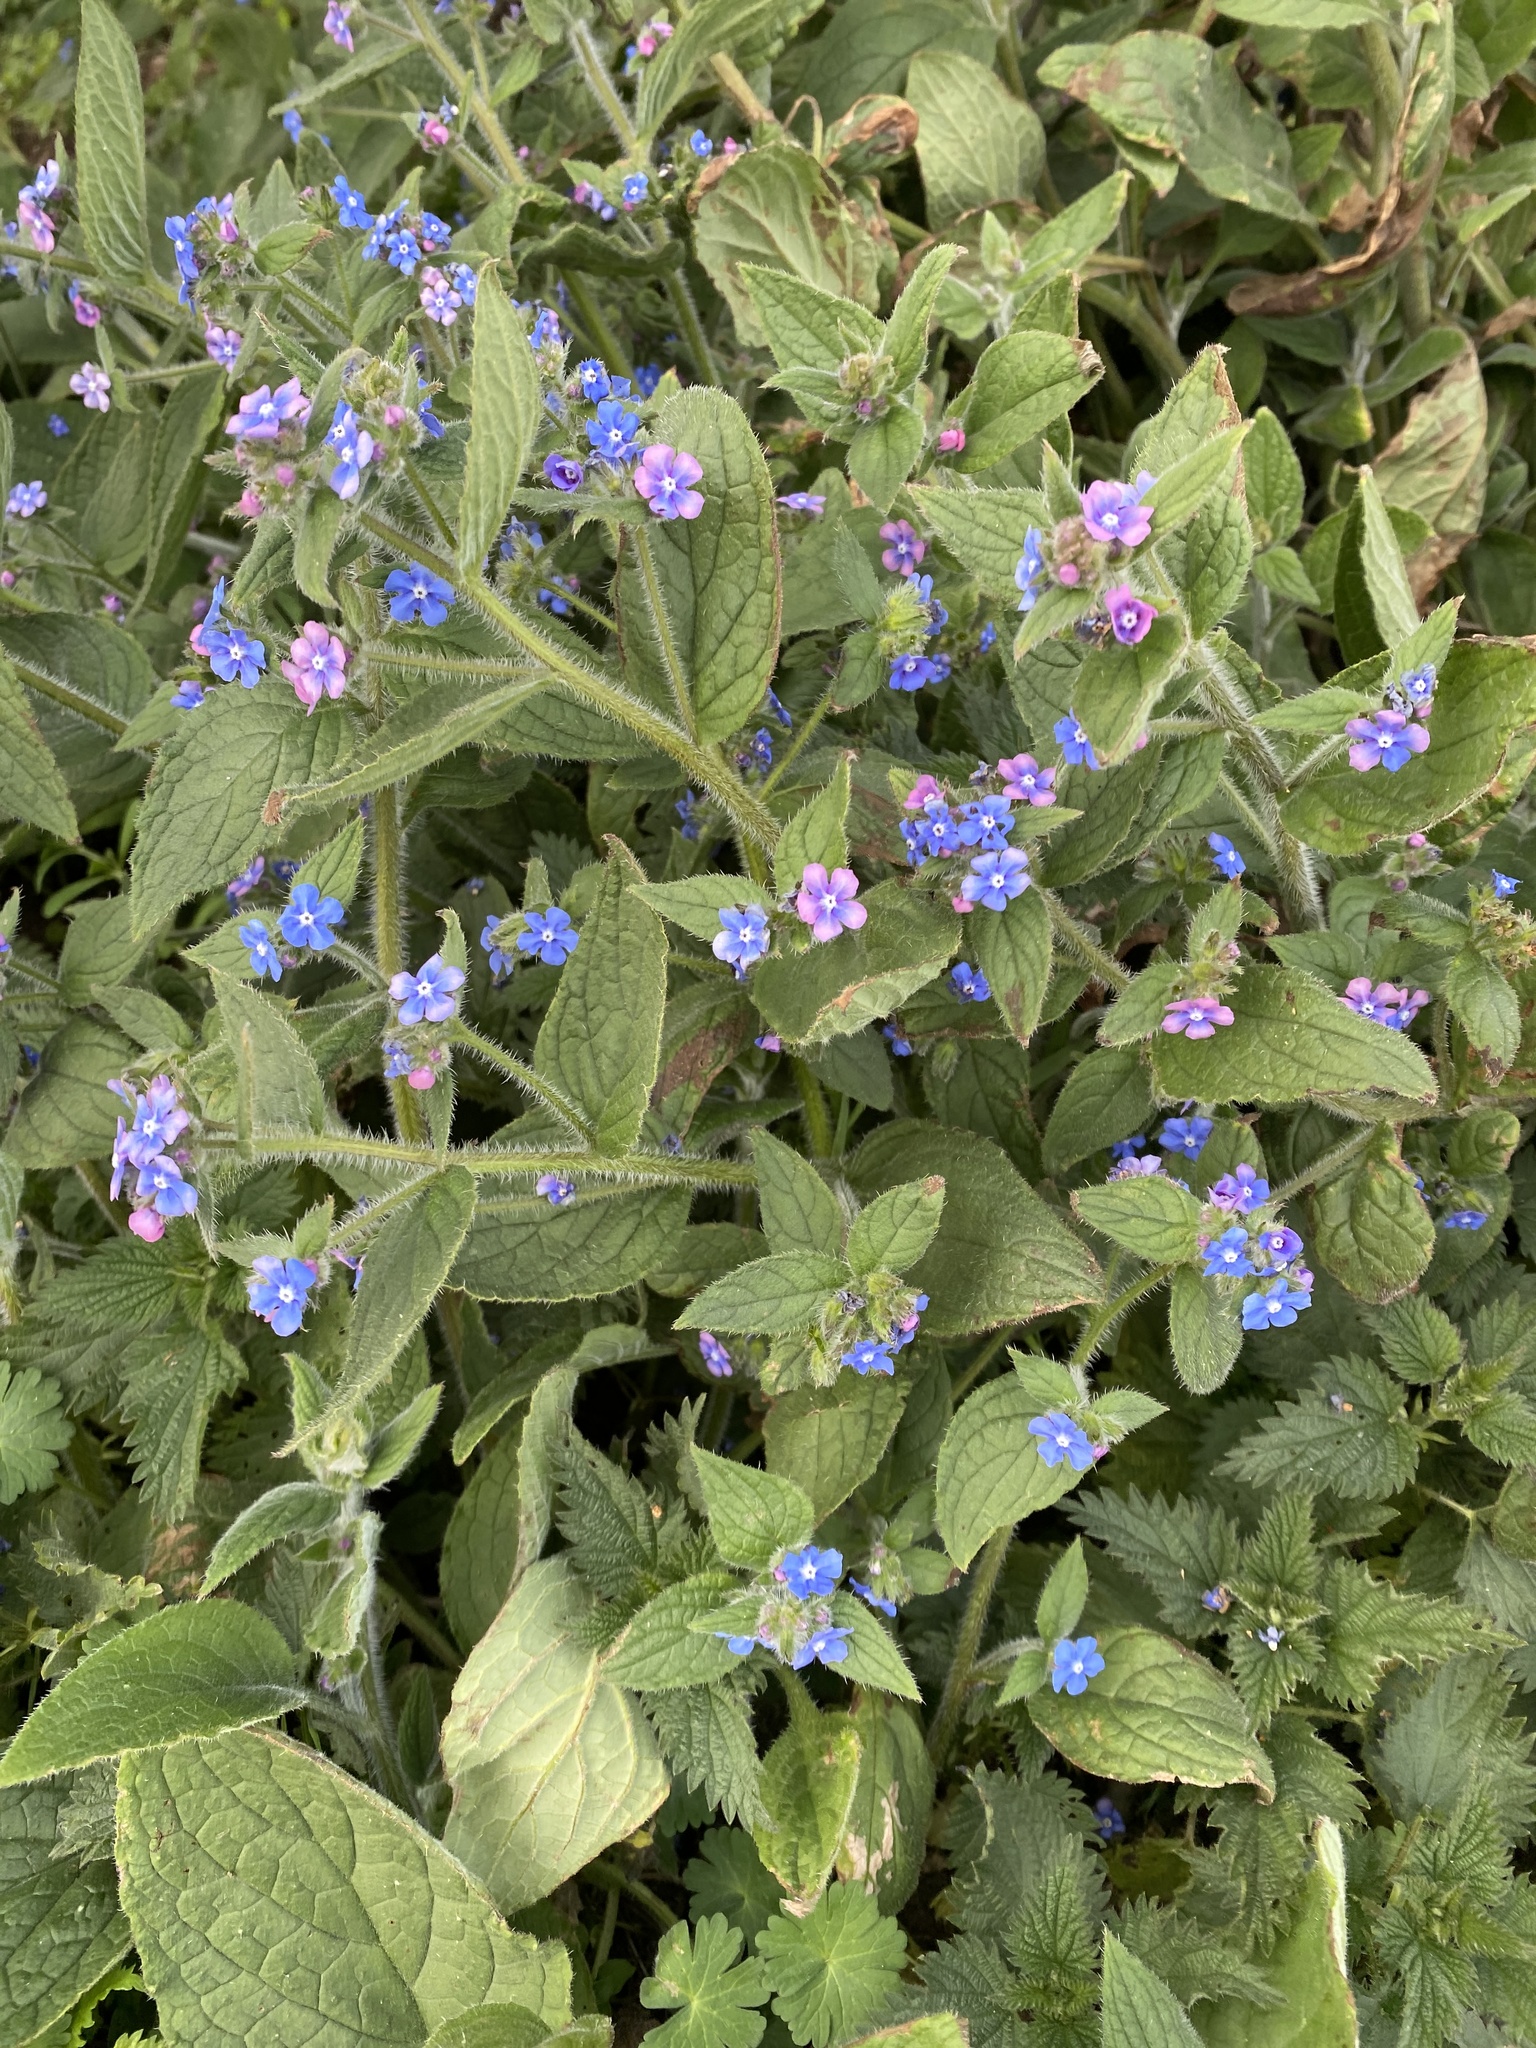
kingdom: Plantae
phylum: Tracheophyta
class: Magnoliopsida
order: Boraginales
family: Boraginaceae
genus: Pentaglottis
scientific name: Pentaglottis sempervirens
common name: Green alkanet
